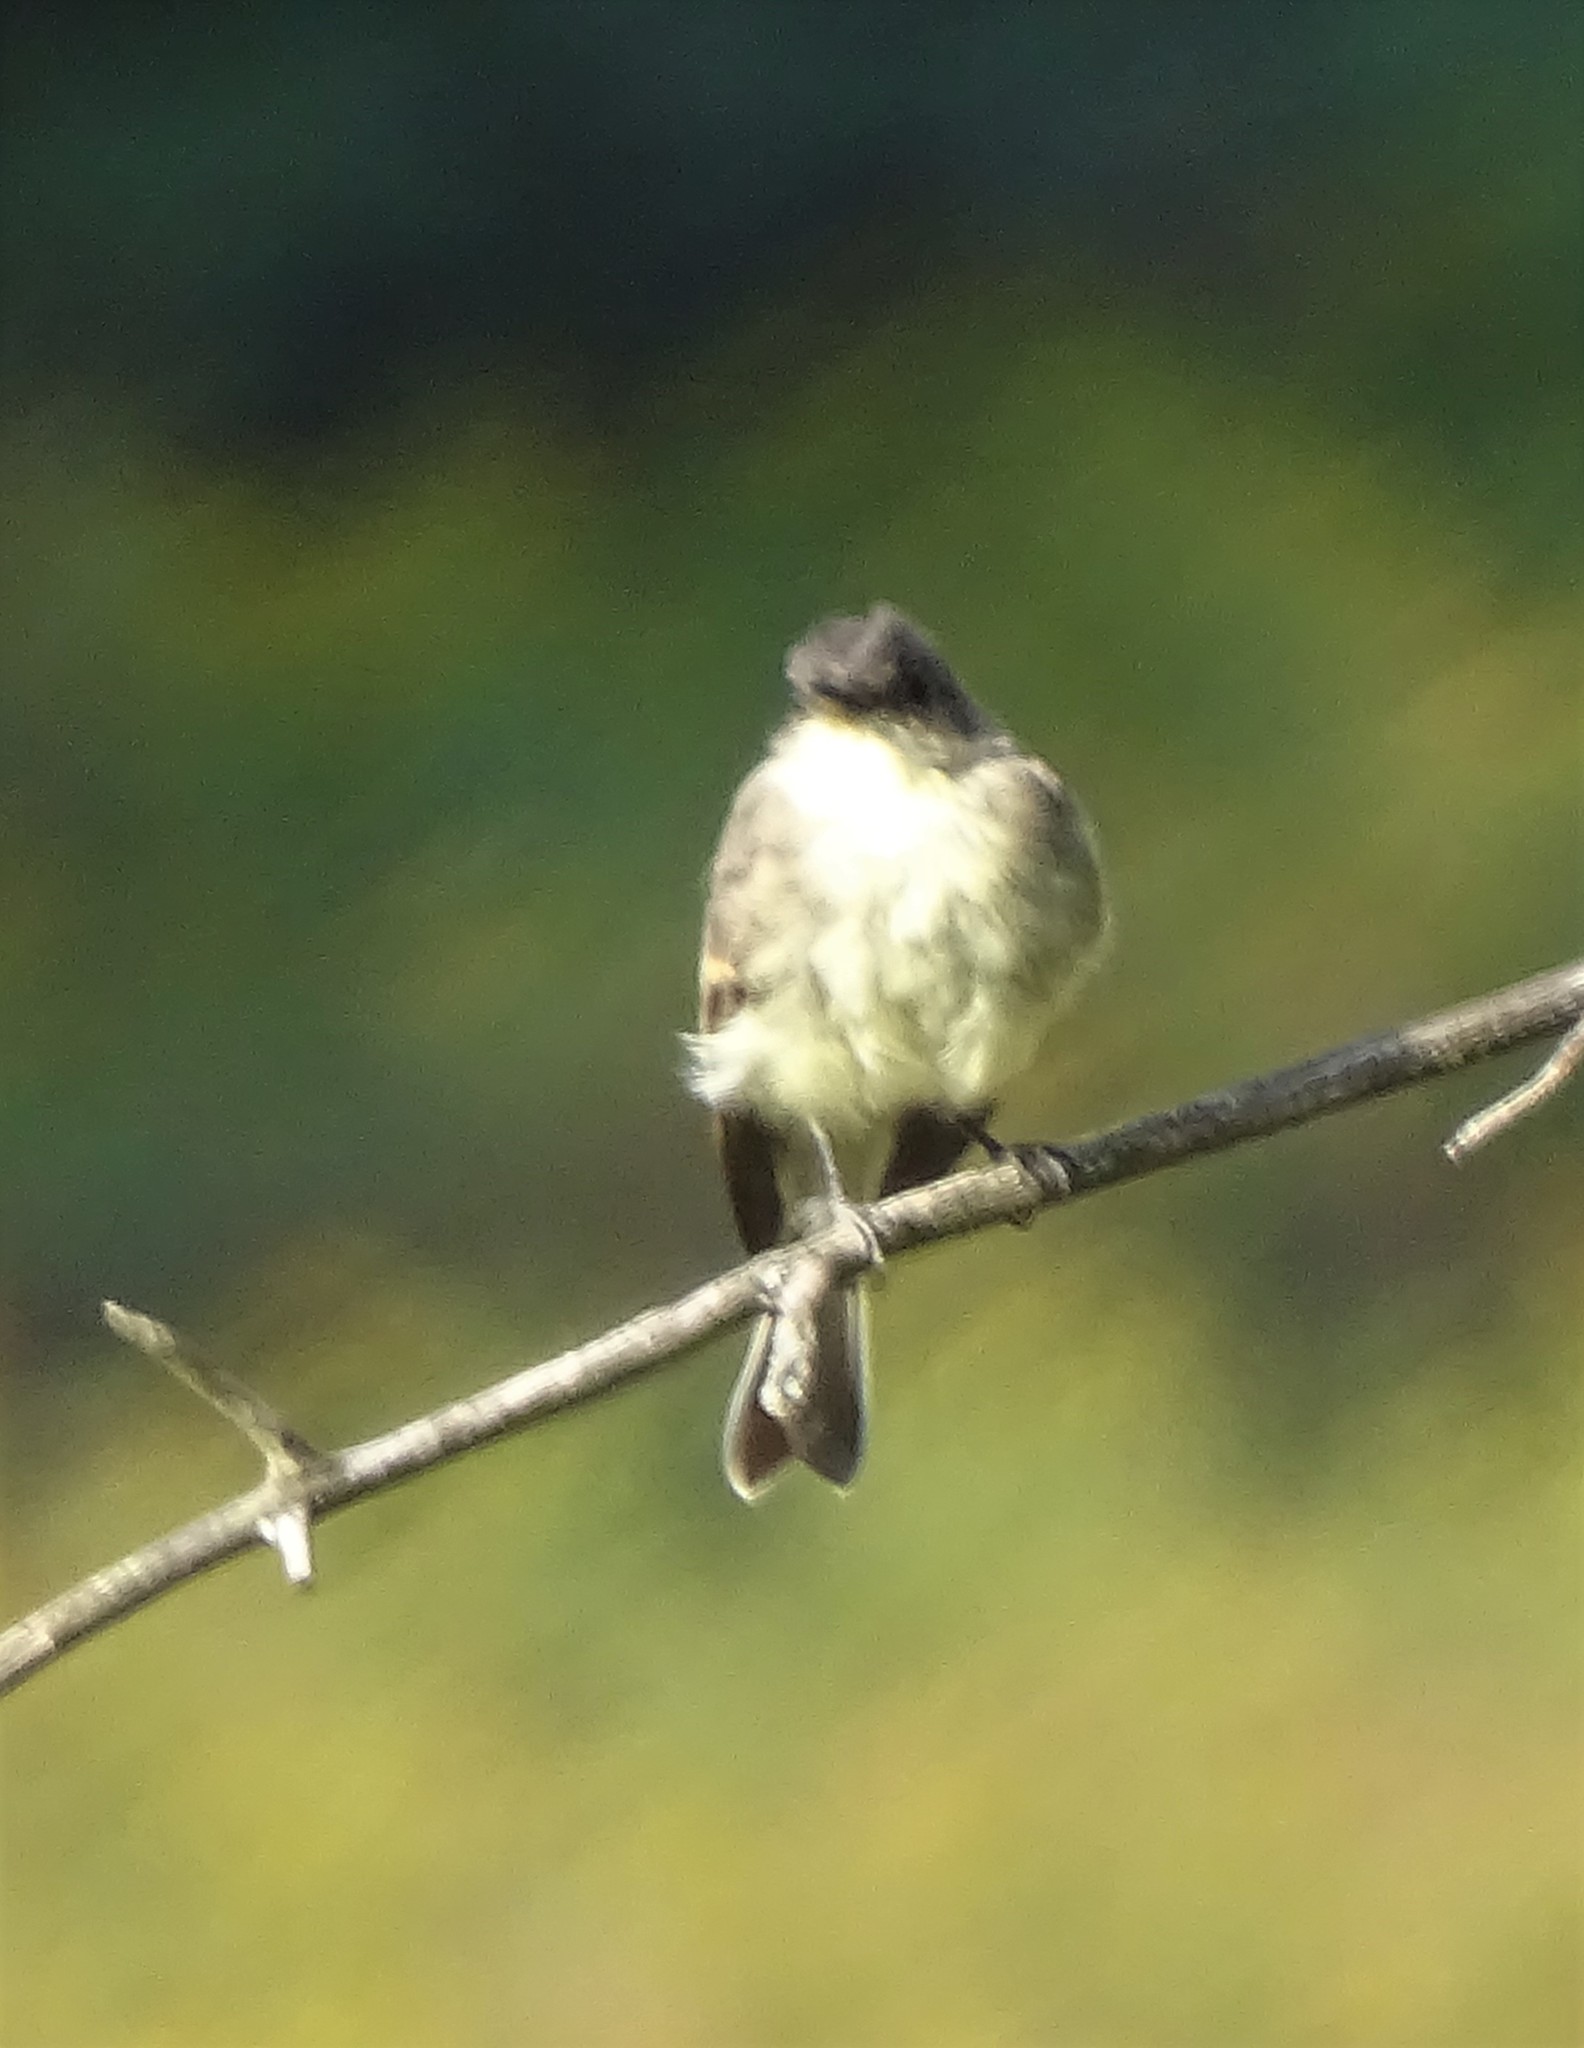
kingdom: Animalia
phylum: Chordata
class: Aves
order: Passeriformes
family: Tyrannidae
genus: Sayornis
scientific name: Sayornis phoebe
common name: Eastern phoebe
